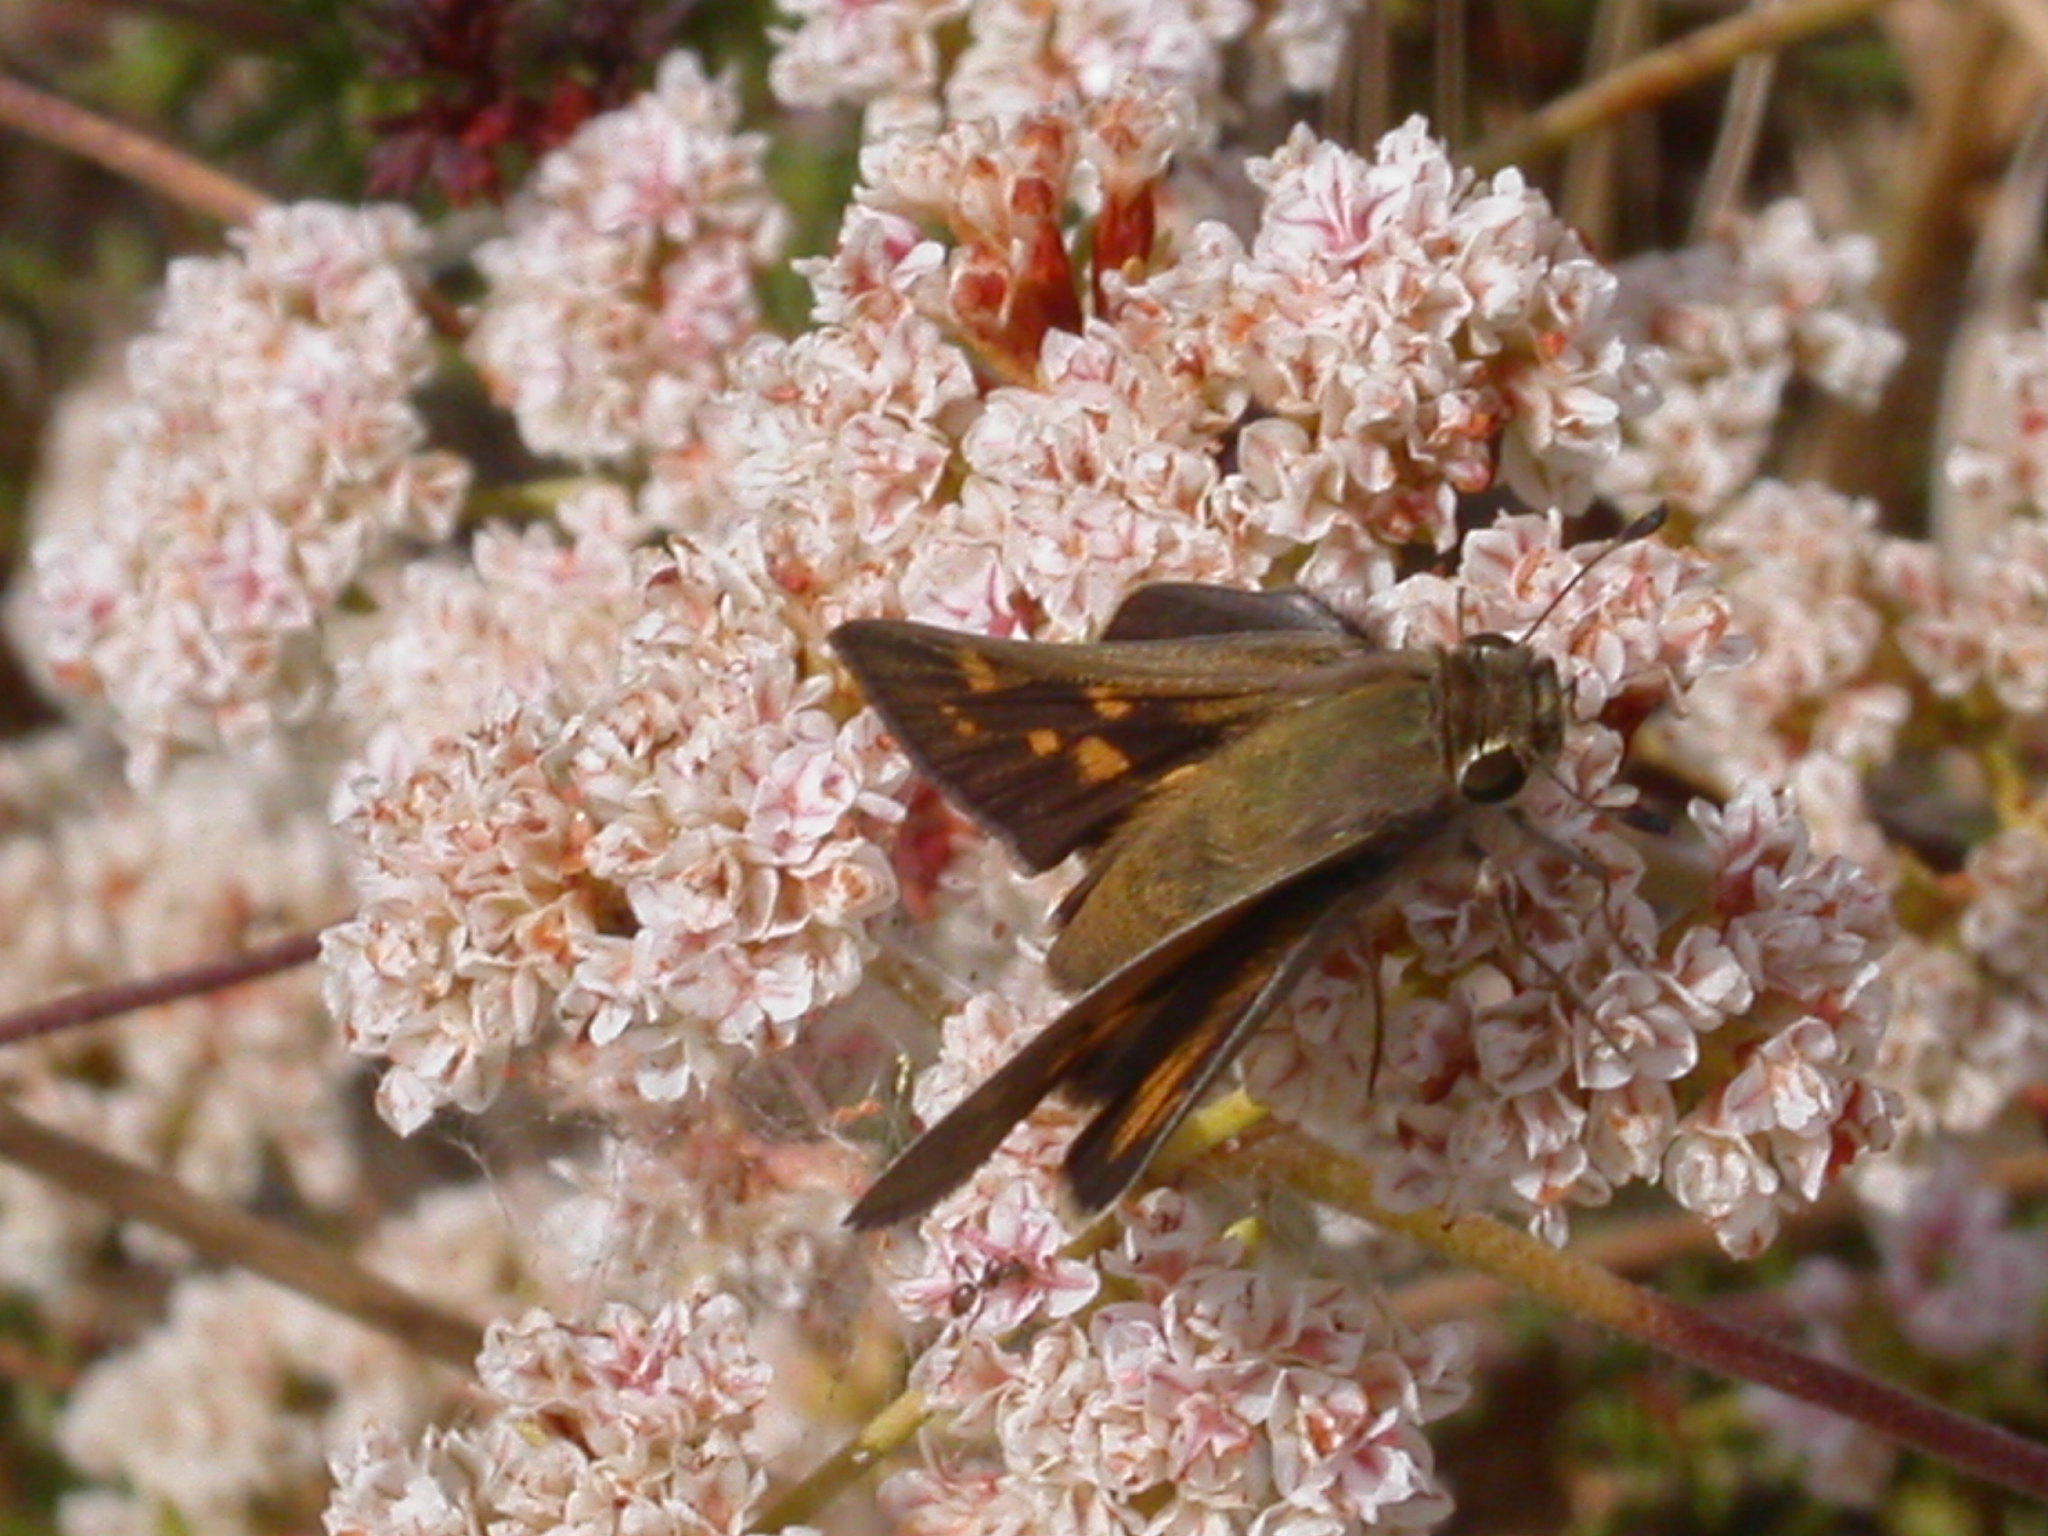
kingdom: Animalia
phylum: Arthropoda
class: Insecta
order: Lepidoptera
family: Hesperiidae
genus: Lon
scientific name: Lon melane
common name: Umber skipper
